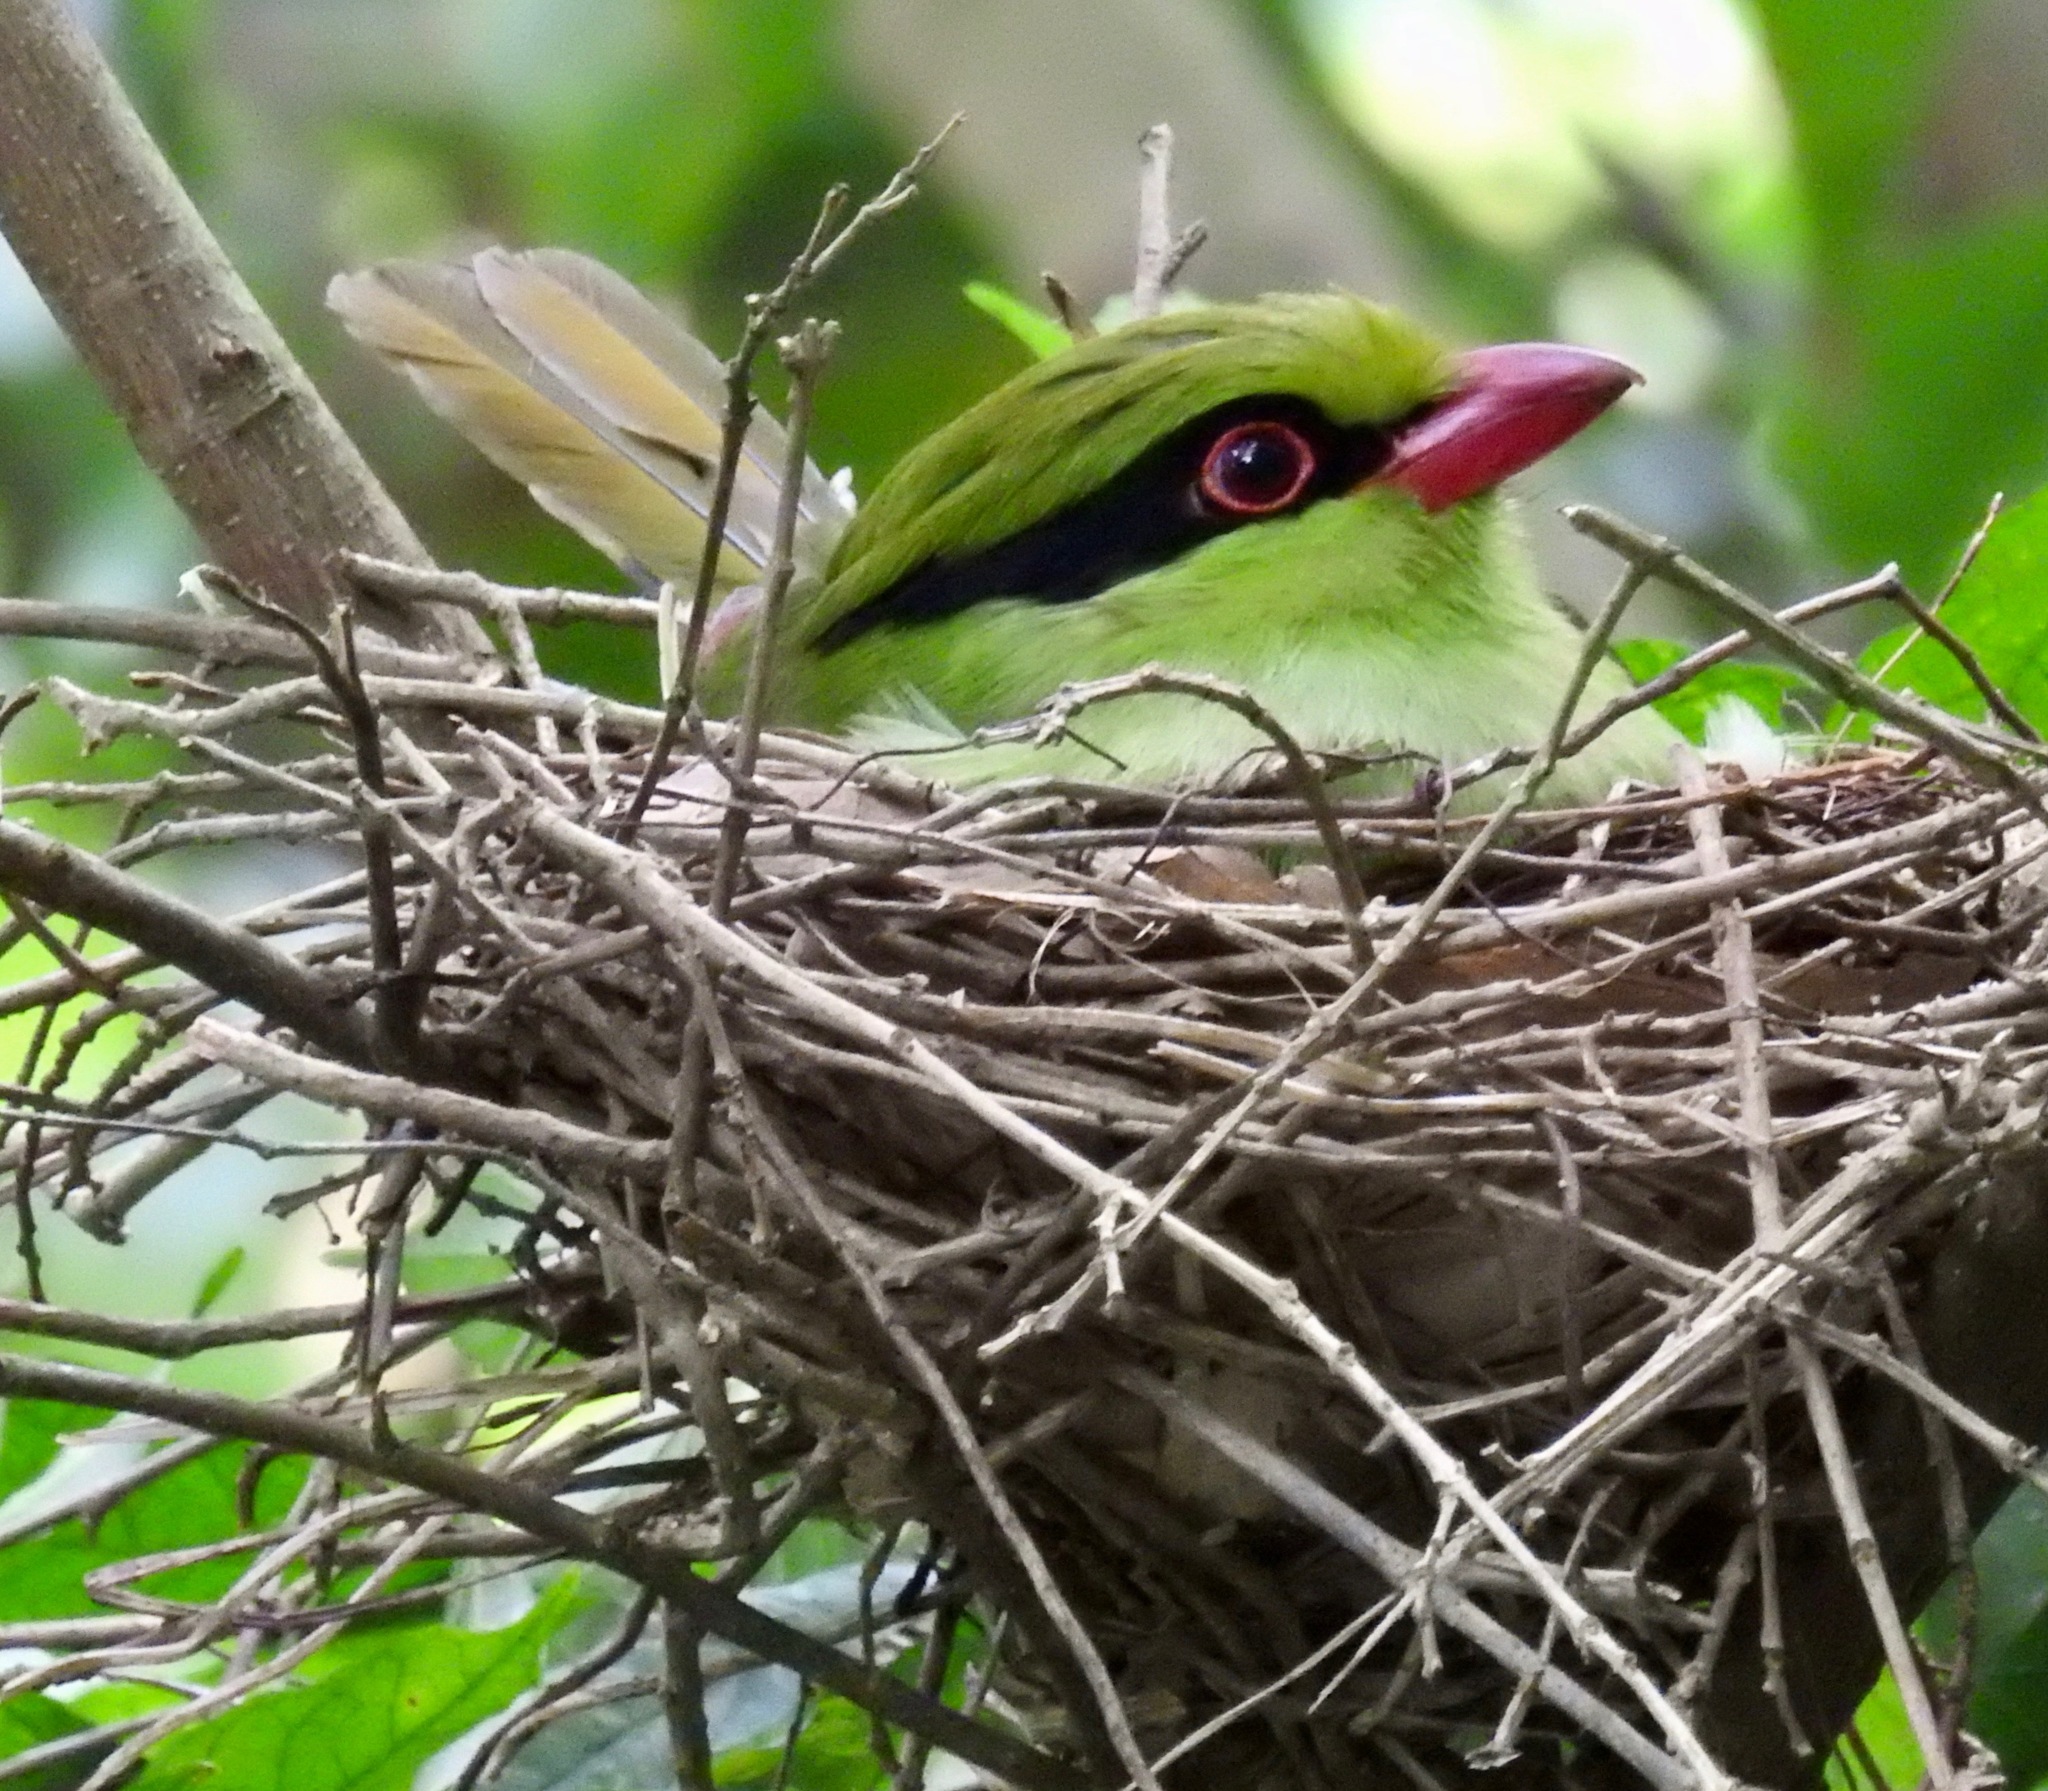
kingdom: Animalia
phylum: Chordata
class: Aves
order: Passeriformes
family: Corvidae
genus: Cissa
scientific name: Cissa hypoleuca
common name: Indochinese green magpie
